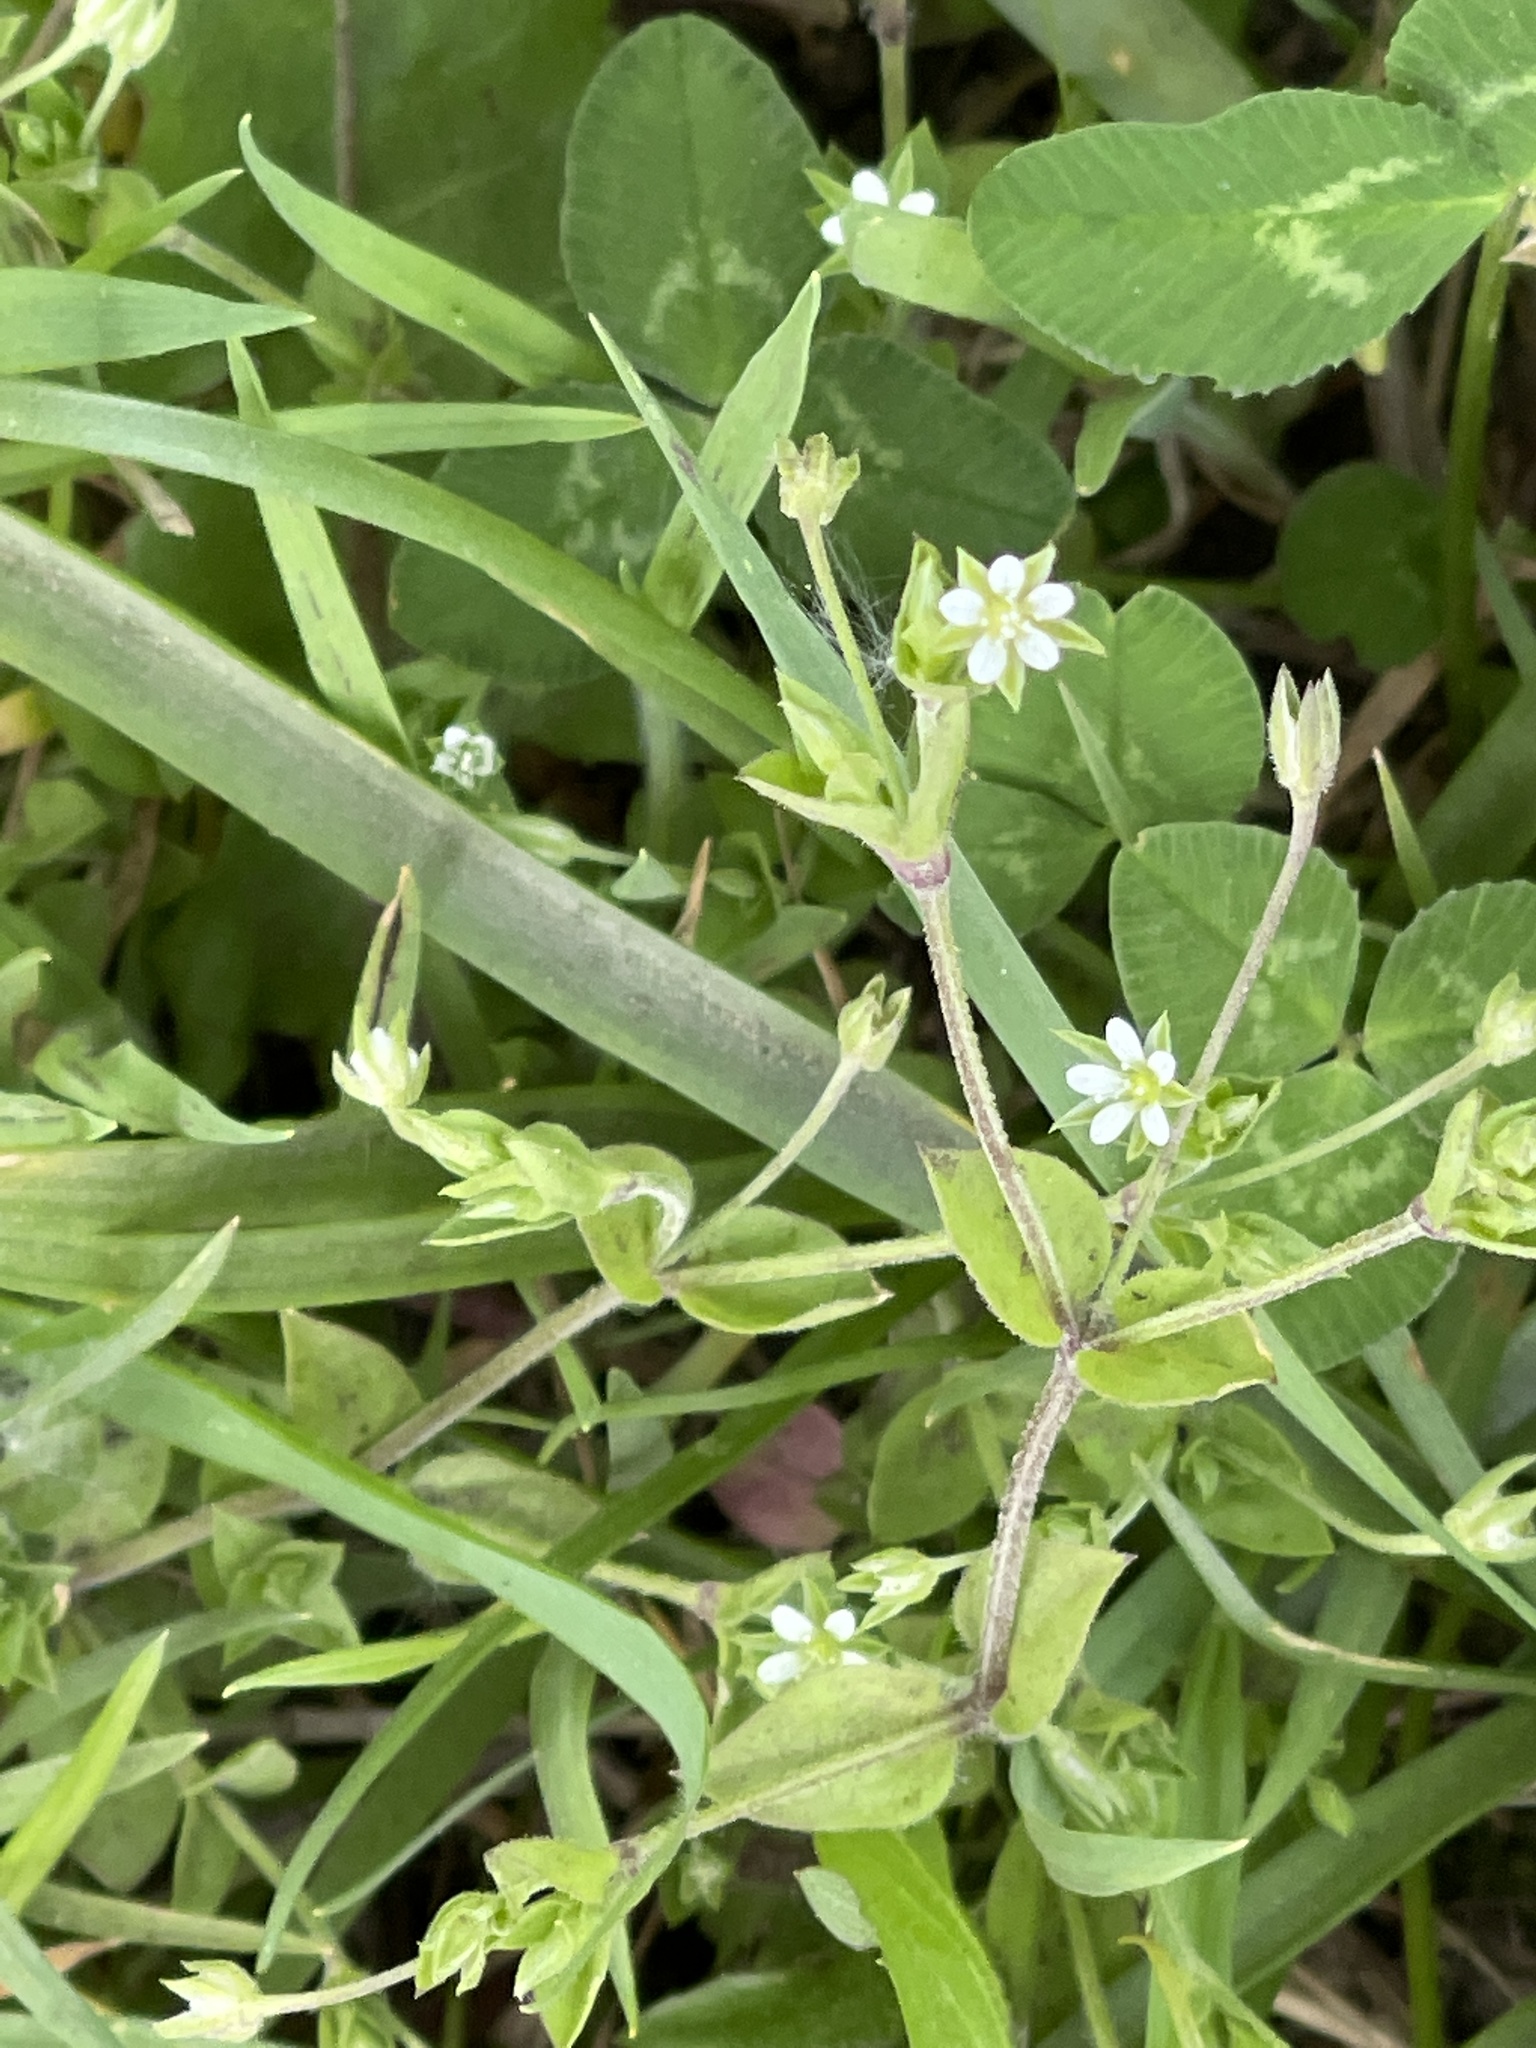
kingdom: Plantae
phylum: Tracheophyta
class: Magnoliopsida
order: Caryophyllales
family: Caryophyllaceae
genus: Arenaria
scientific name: Arenaria serpyllifolia
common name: Thyme-leaved sandwort
